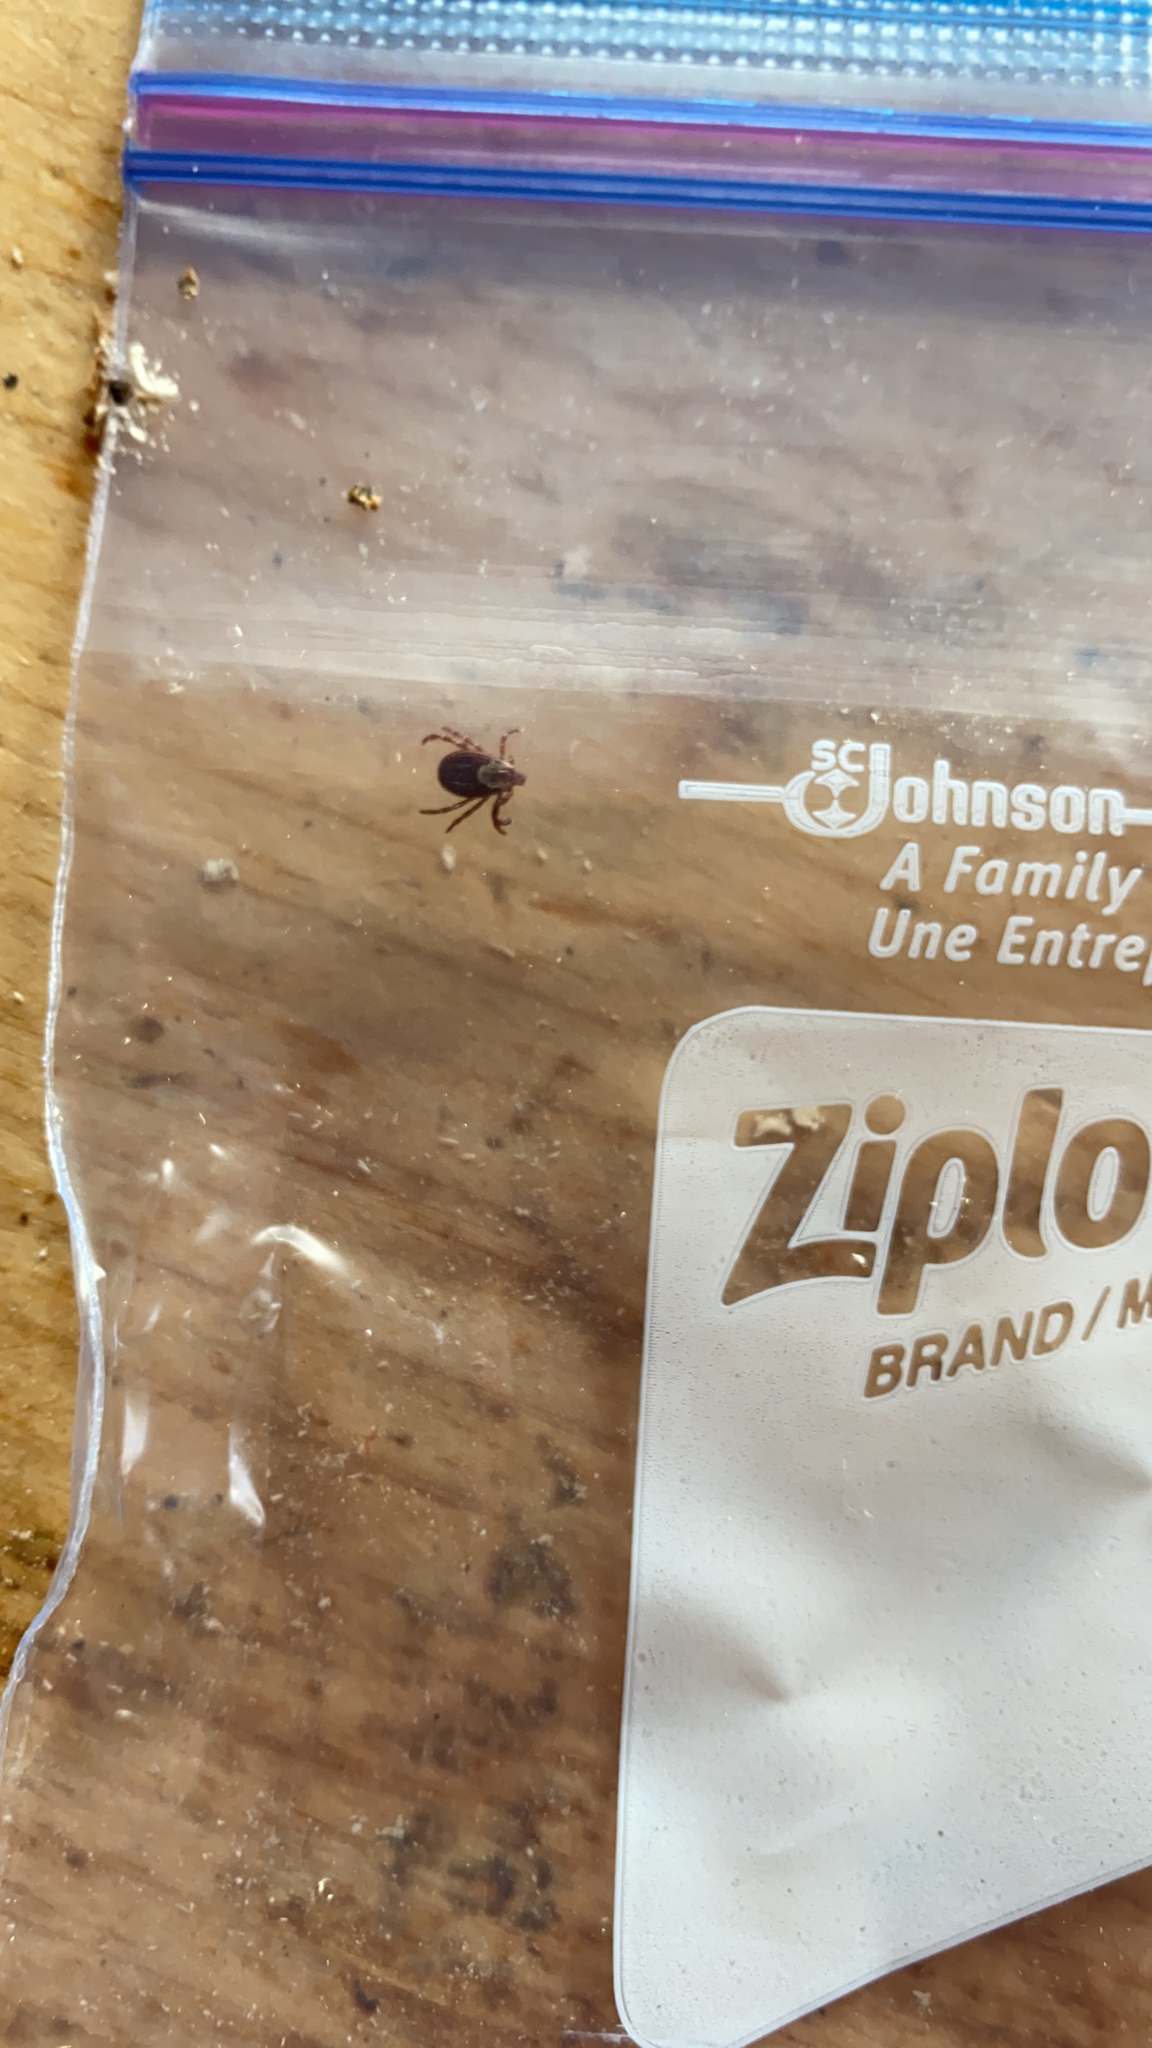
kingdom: Animalia
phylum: Arthropoda
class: Arachnida
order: Ixodida
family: Ixodidae
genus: Dermacentor
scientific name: Dermacentor variabilis
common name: American dog tick
